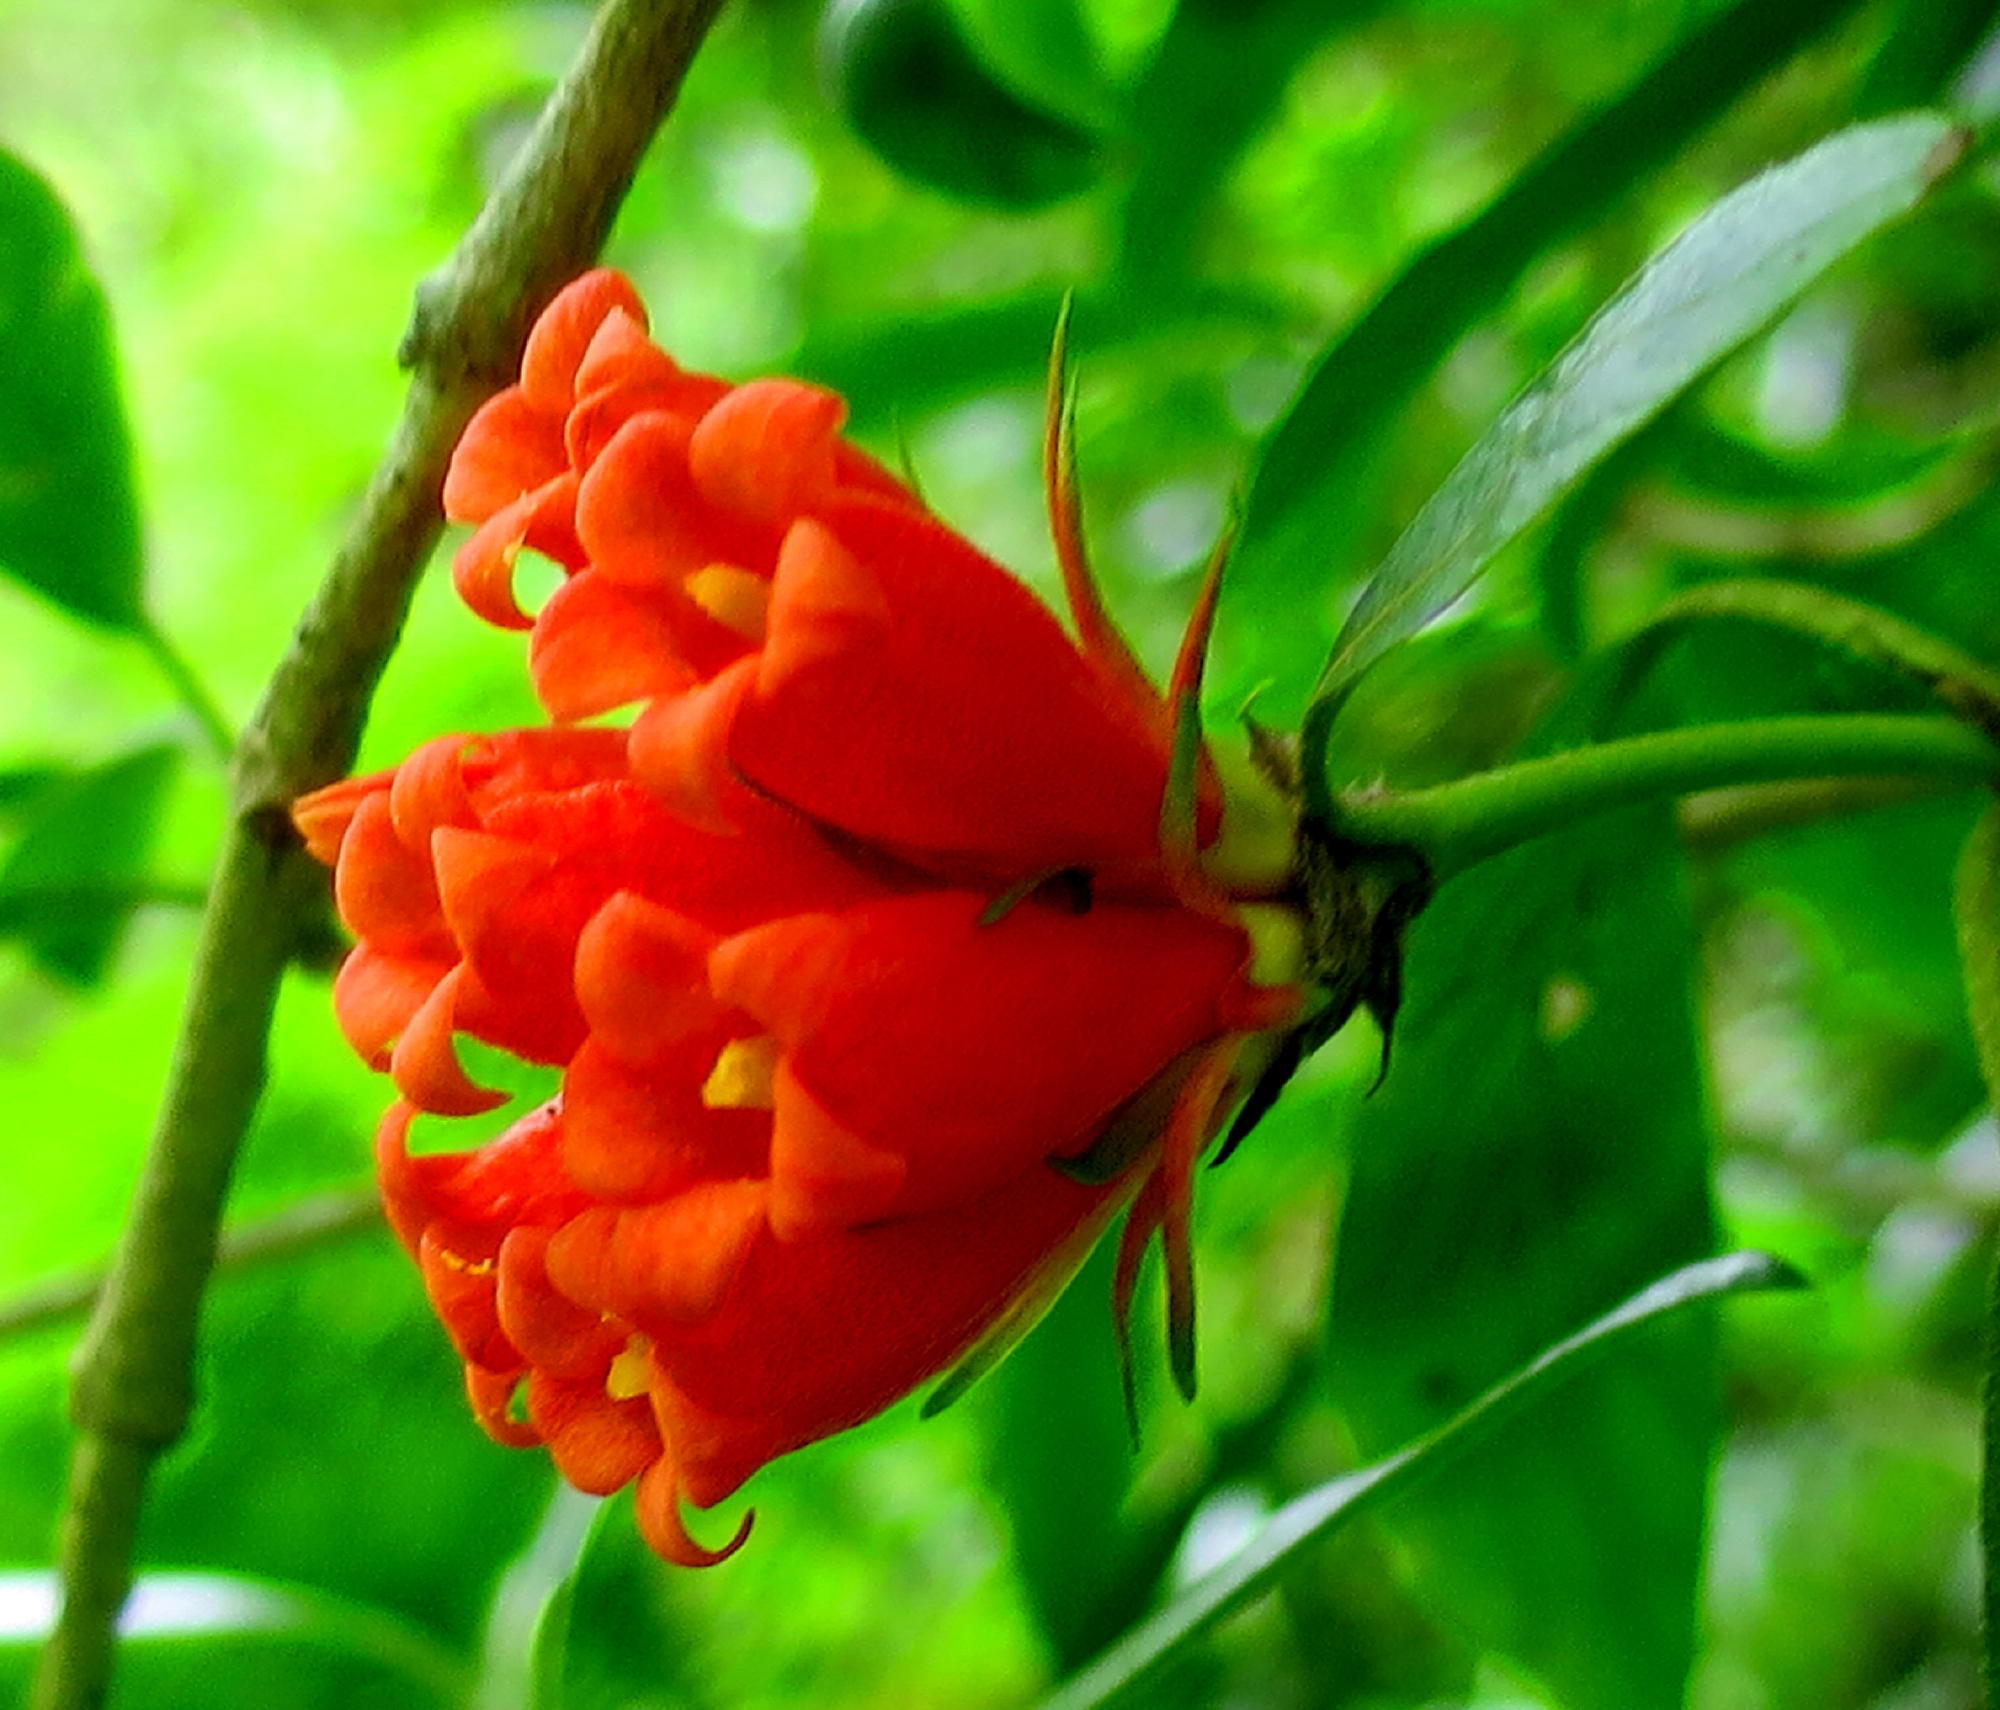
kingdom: Plantae
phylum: Tracheophyta
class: Magnoliopsida
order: Gentianales
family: Rubiaceae
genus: Burchellia
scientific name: Burchellia bubalina
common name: Wild pomegranate
